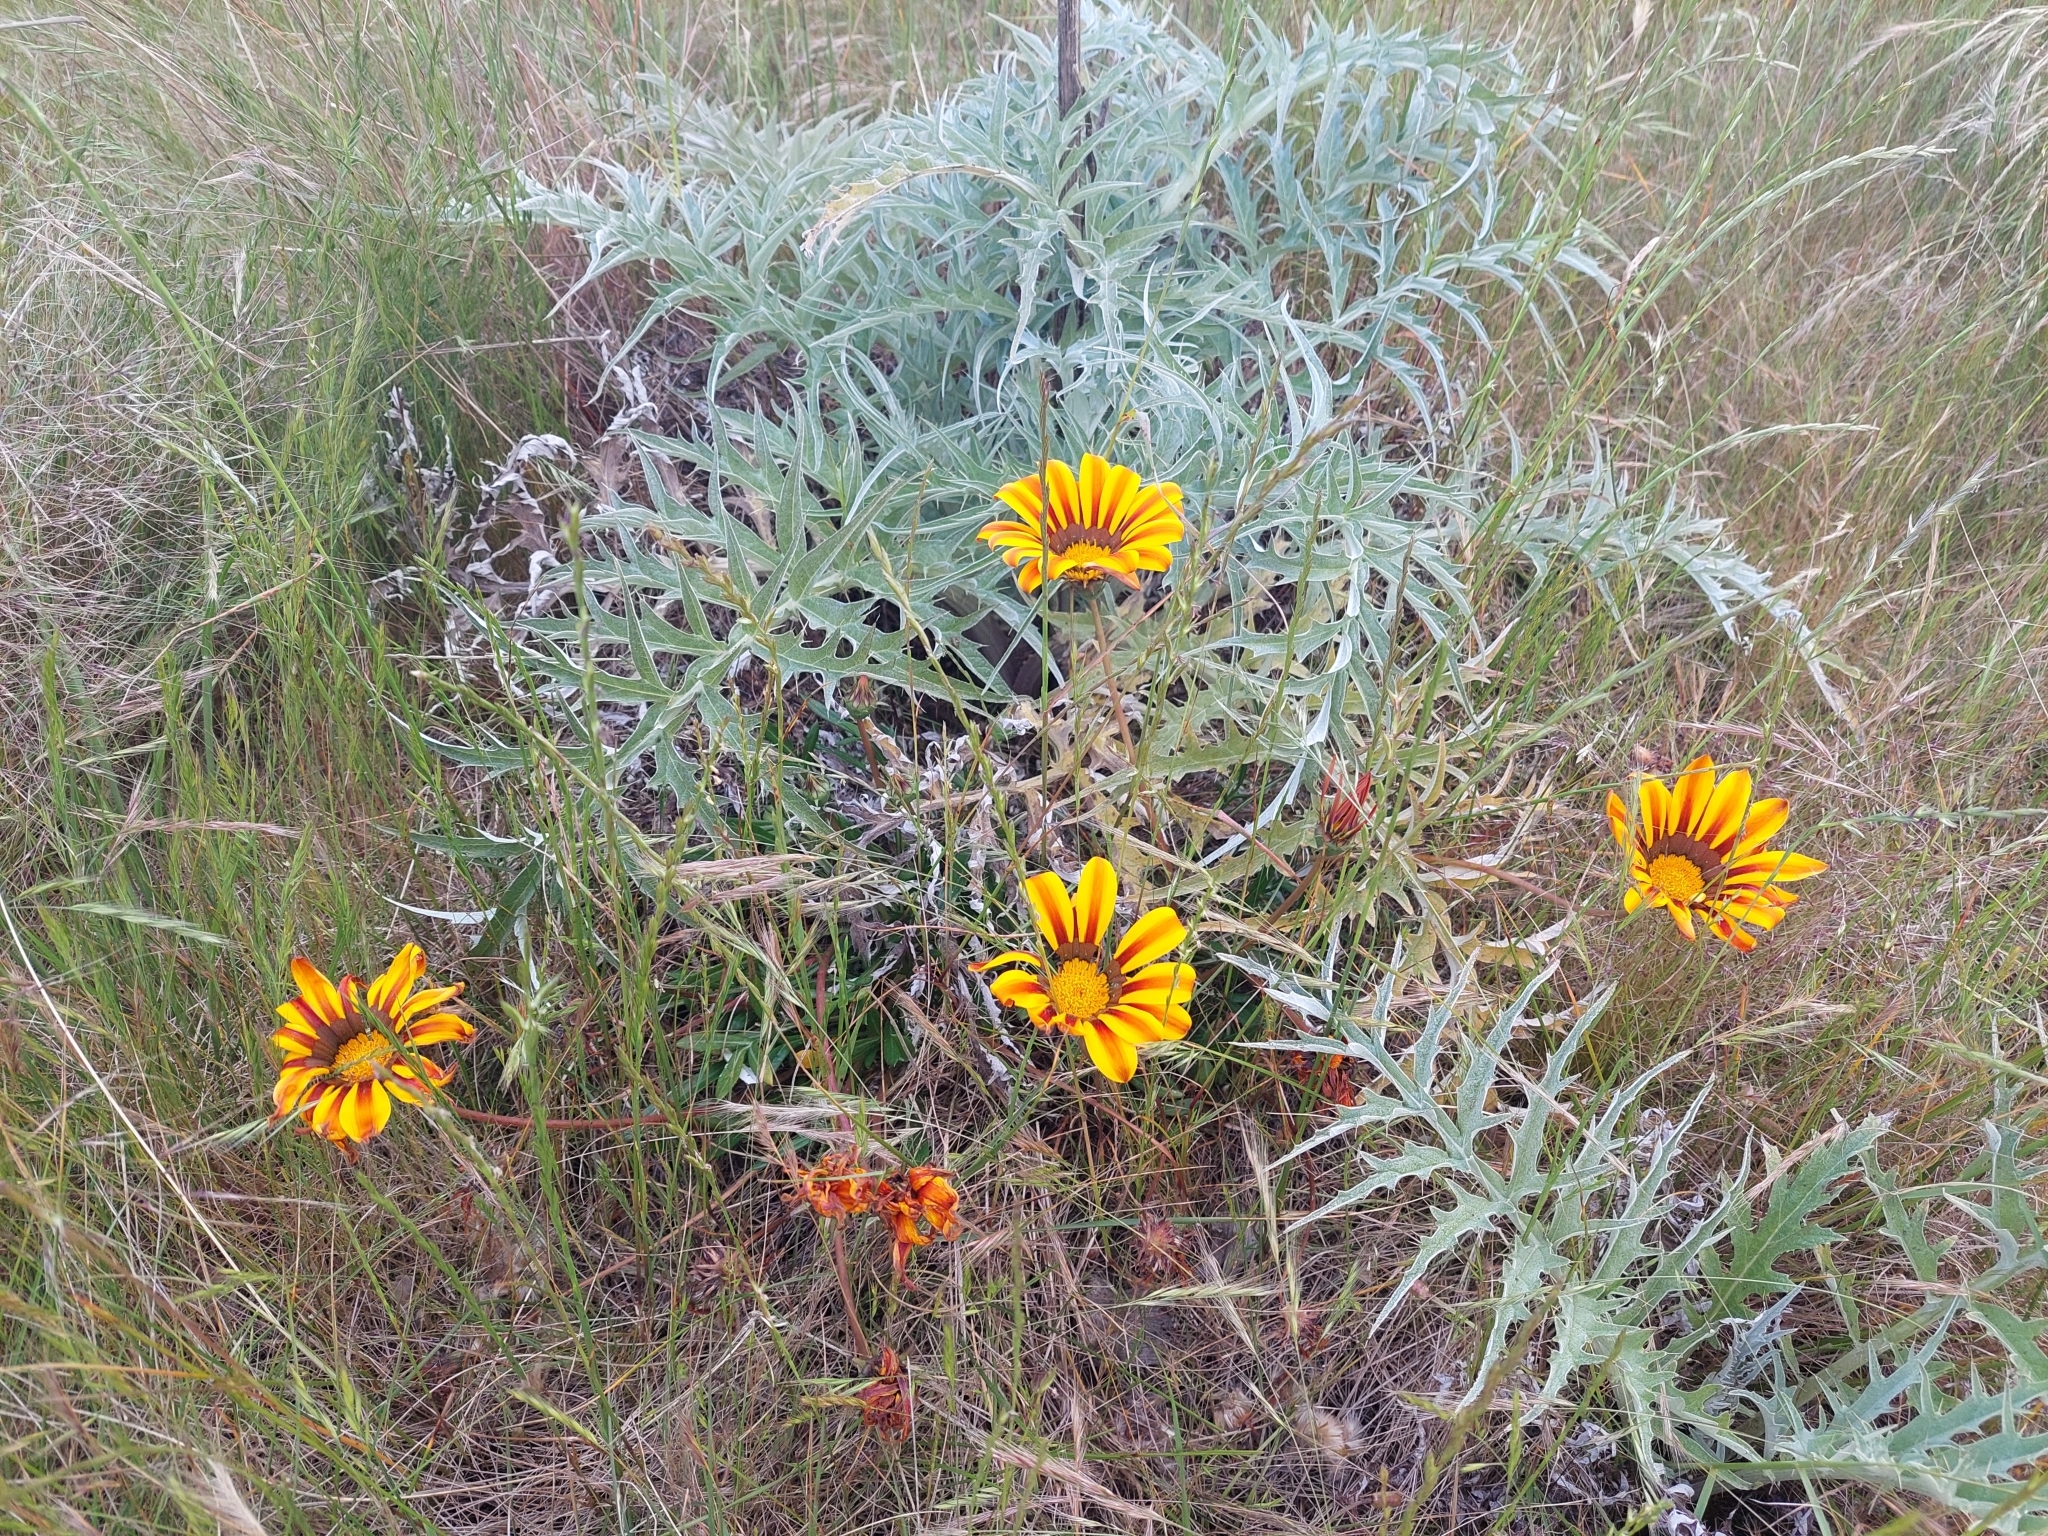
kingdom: Plantae
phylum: Tracheophyta
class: Magnoliopsida
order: Asterales
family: Asteraceae
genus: Gazania
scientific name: Gazania splendens
